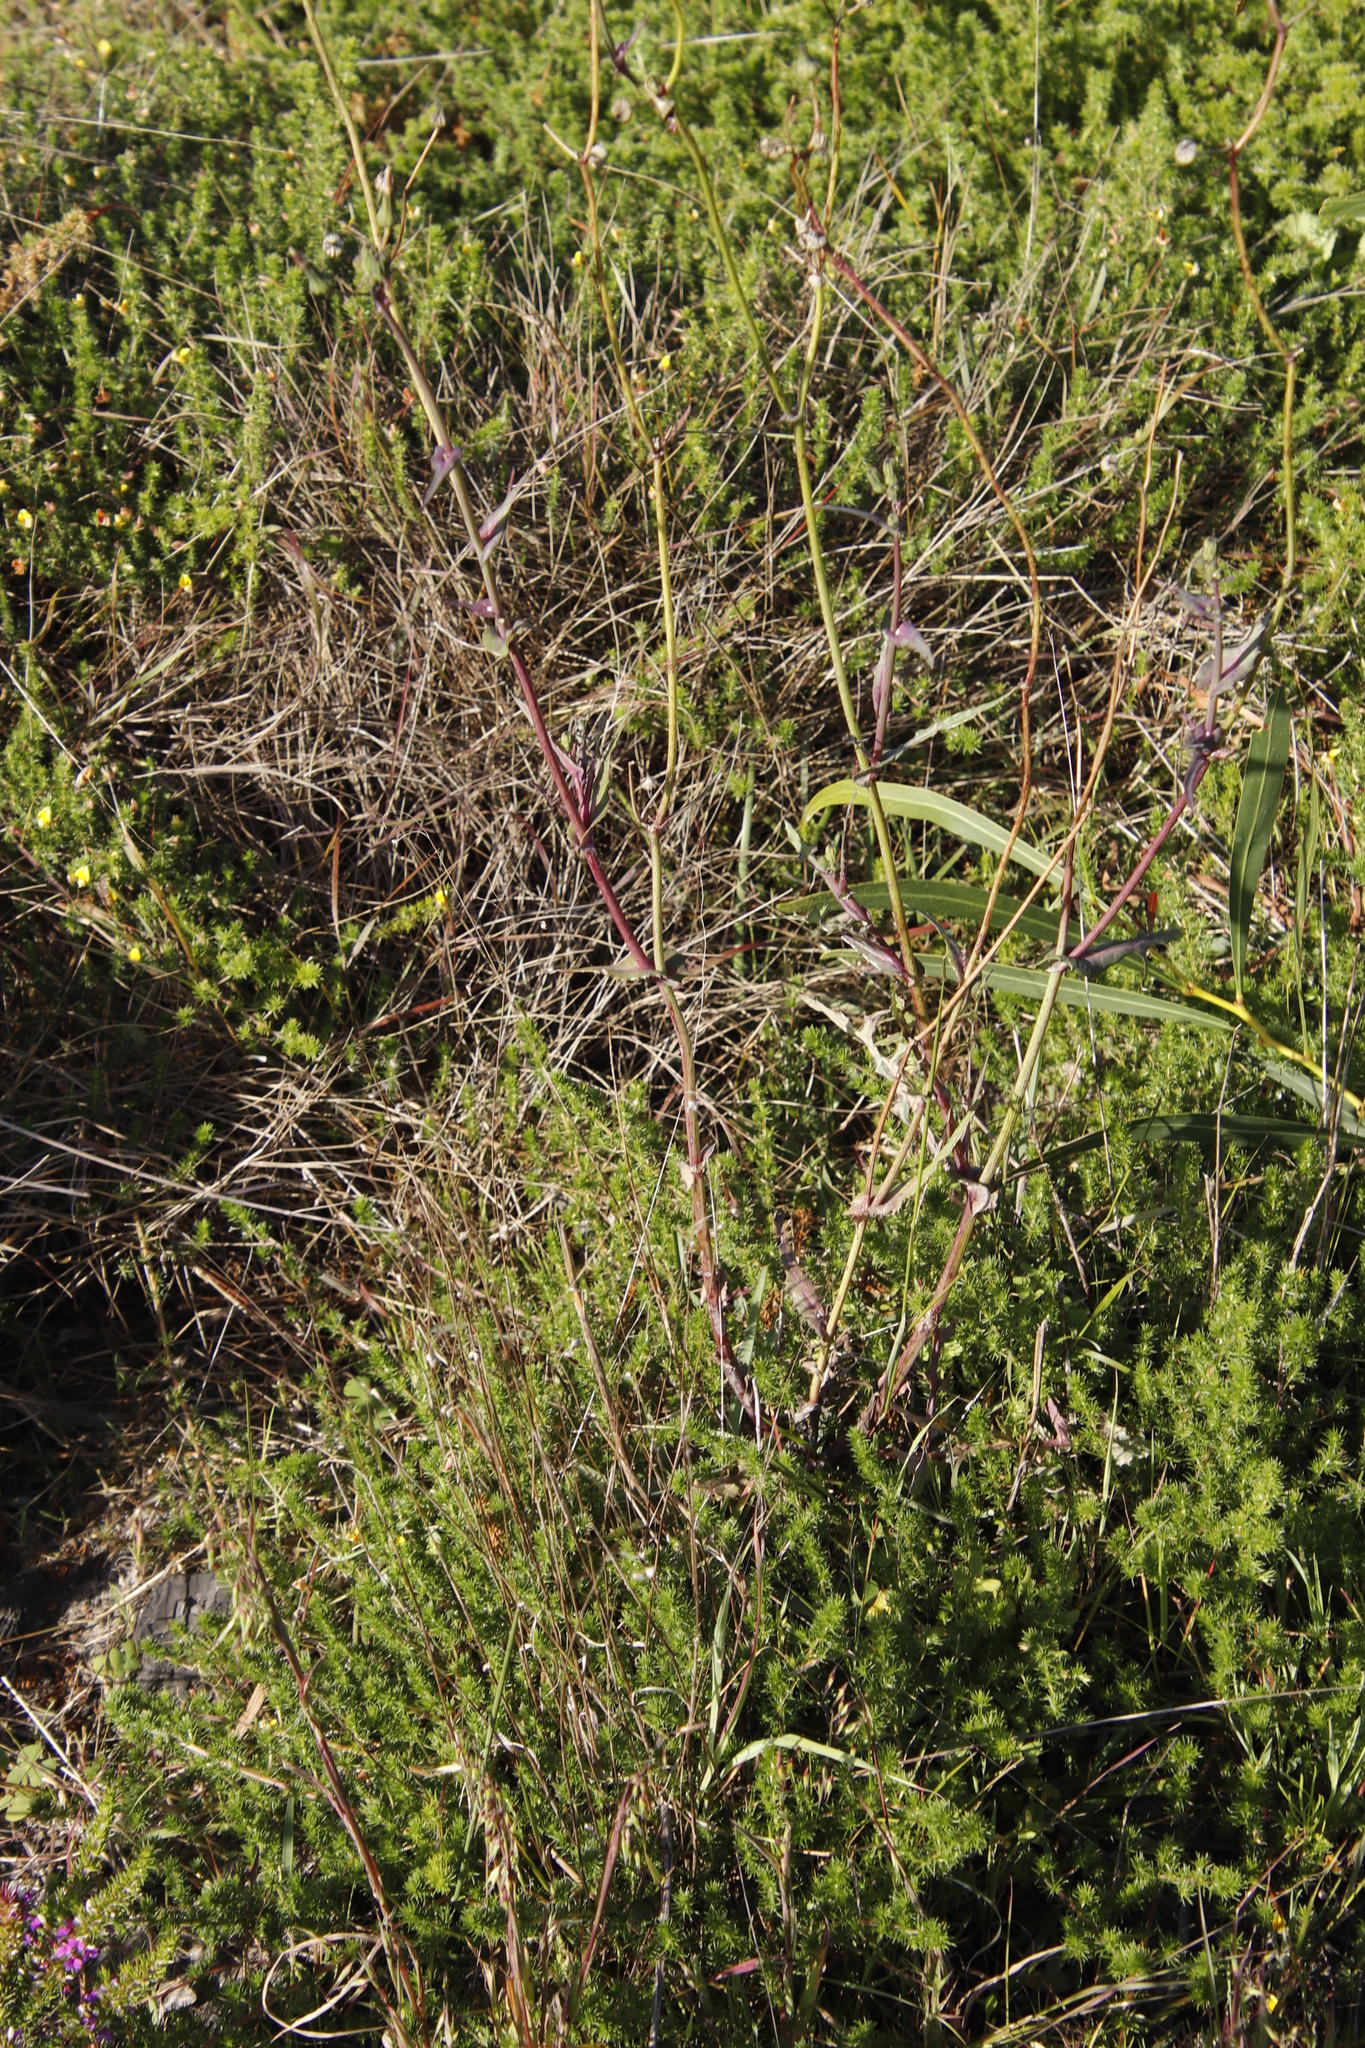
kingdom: Plantae
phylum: Tracheophyta
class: Magnoliopsida
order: Fabales
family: Polygalaceae
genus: Muraltia
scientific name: Muraltia heisteria
